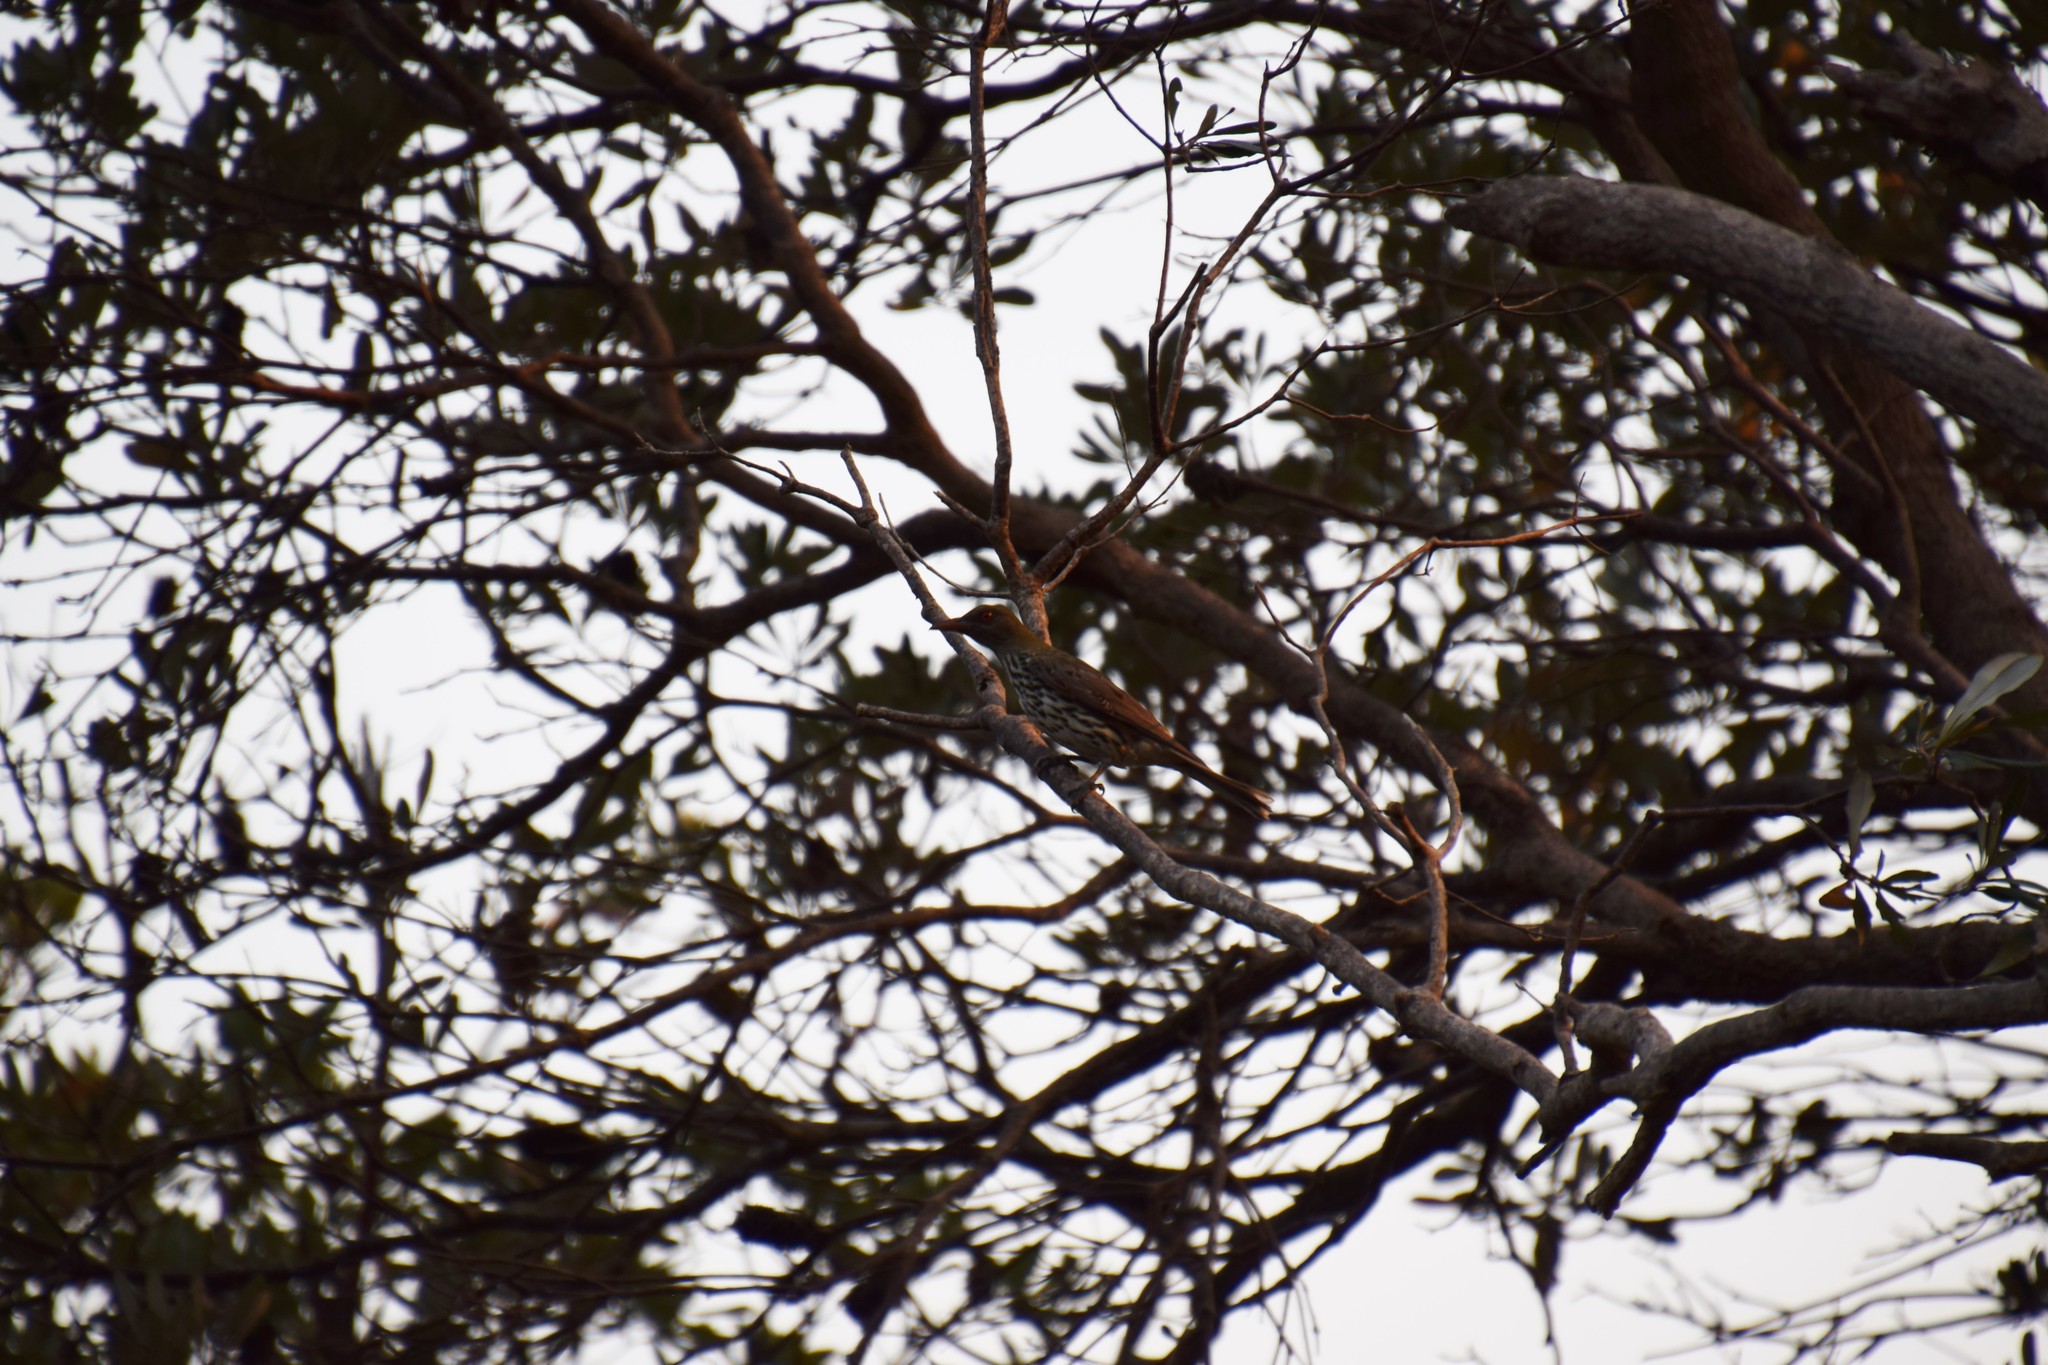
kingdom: Animalia
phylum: Chordata
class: Aves
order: Passeriformes
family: Oriolidae
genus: Oriolus
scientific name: Oriolus sagittatus
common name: Olive-backed oriole
